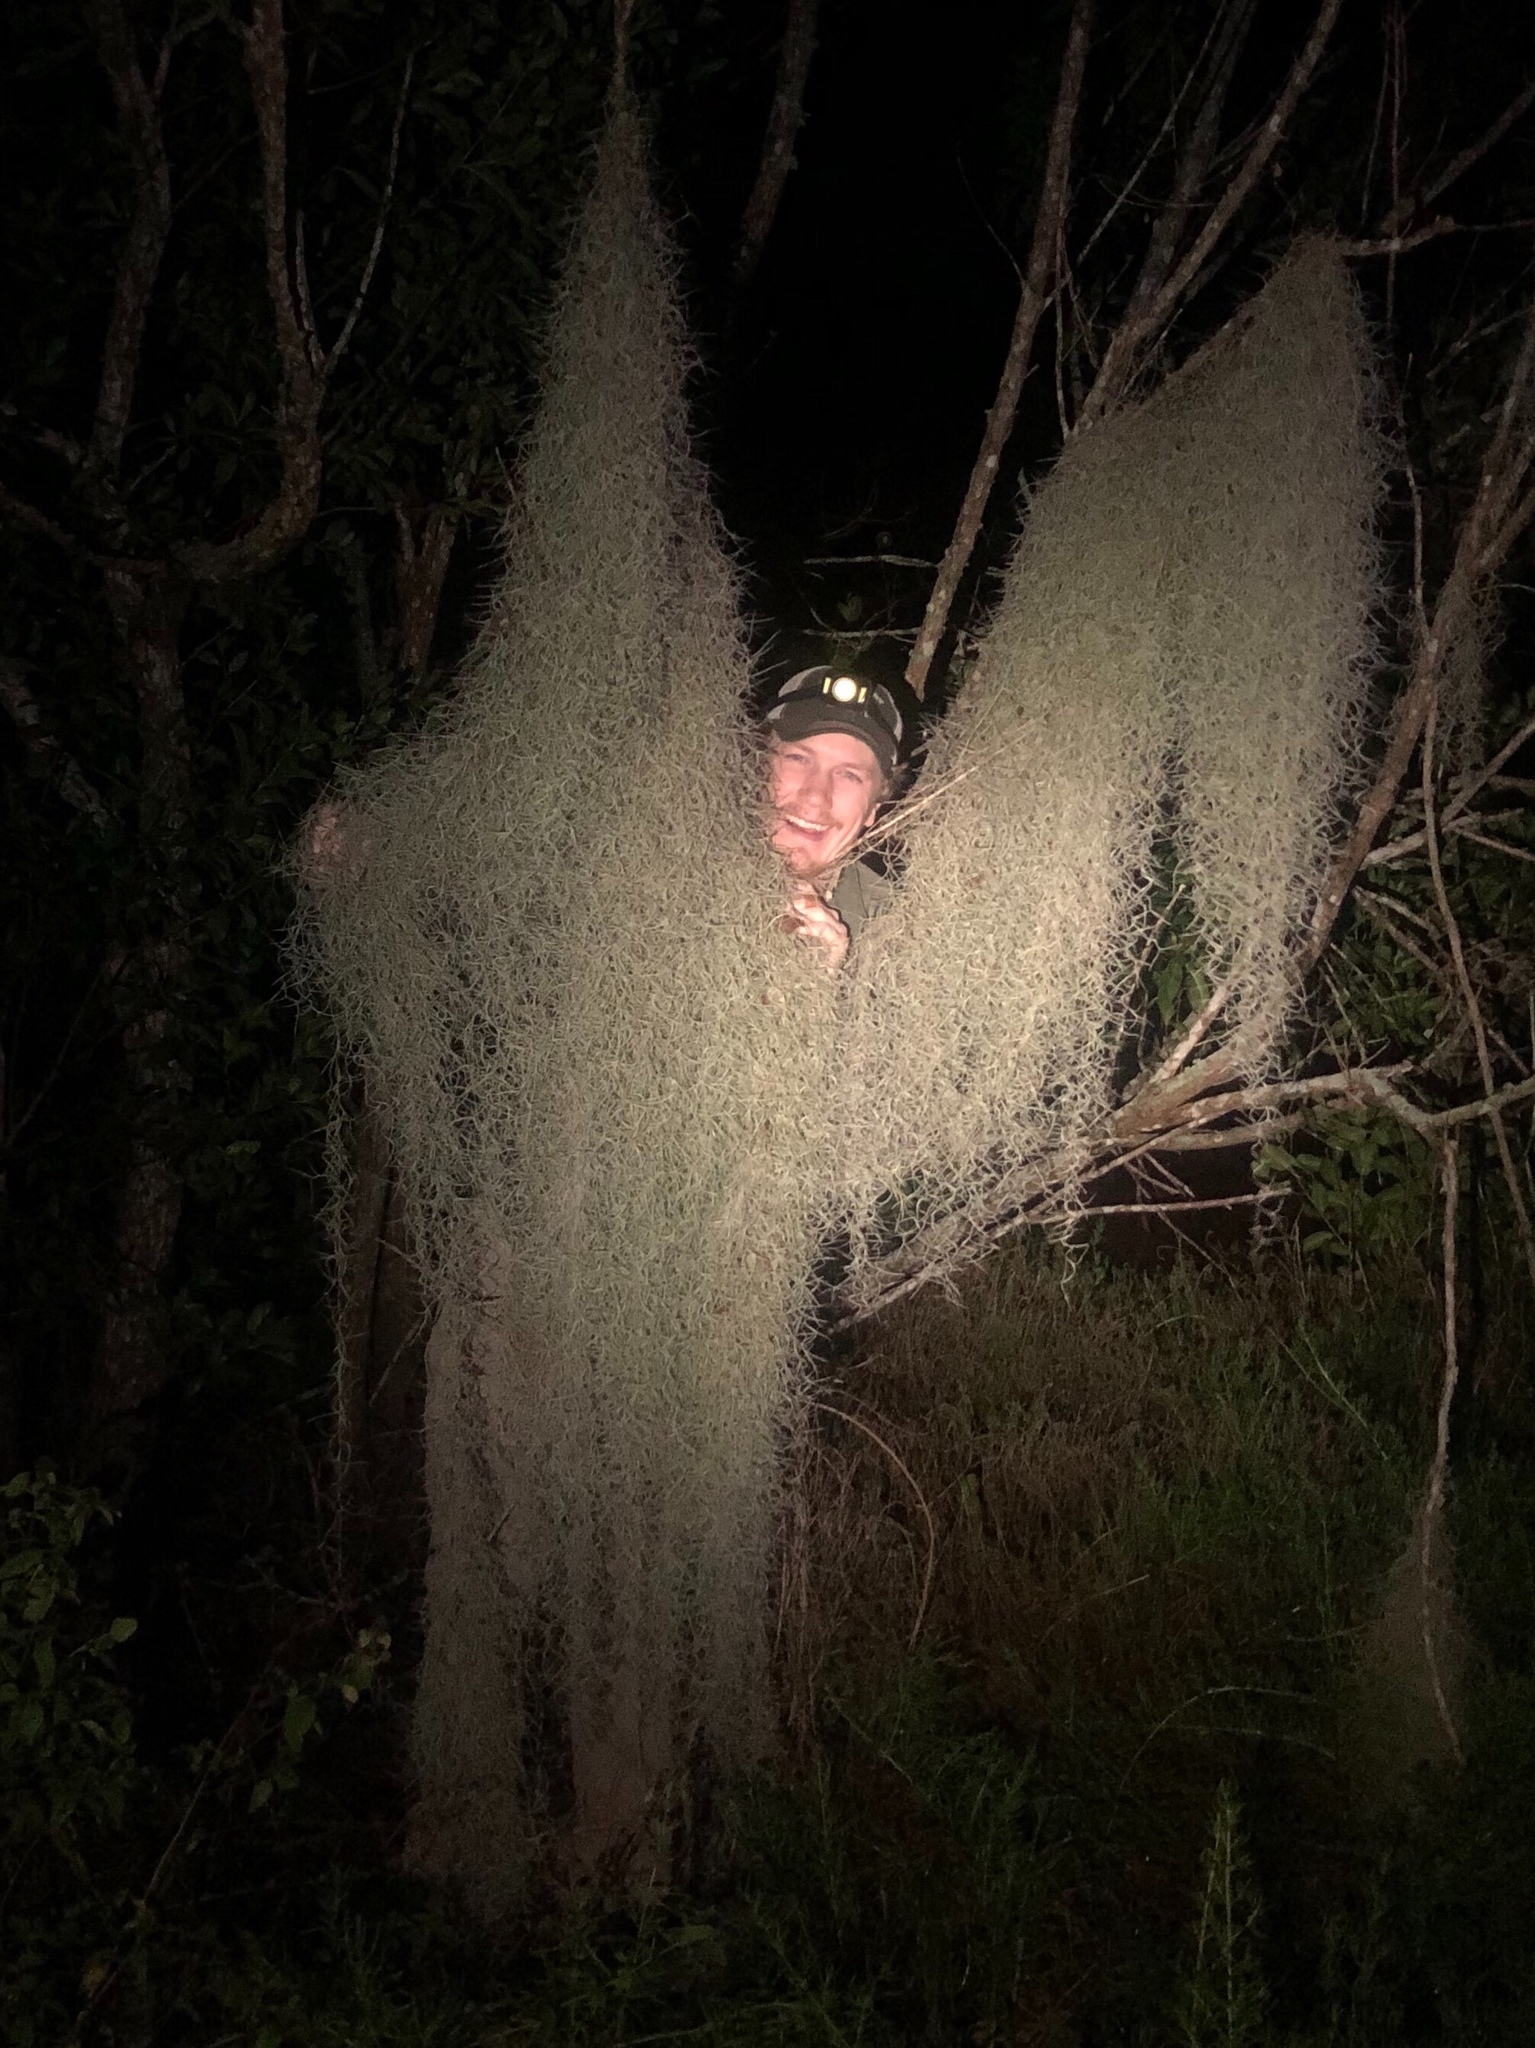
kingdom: Plantae
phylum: Tracheophyta
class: Liliopsida
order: Poales
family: Bromeliaceae
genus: Tillandsia
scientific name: Tillandsia usneoides
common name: Spanish moss
